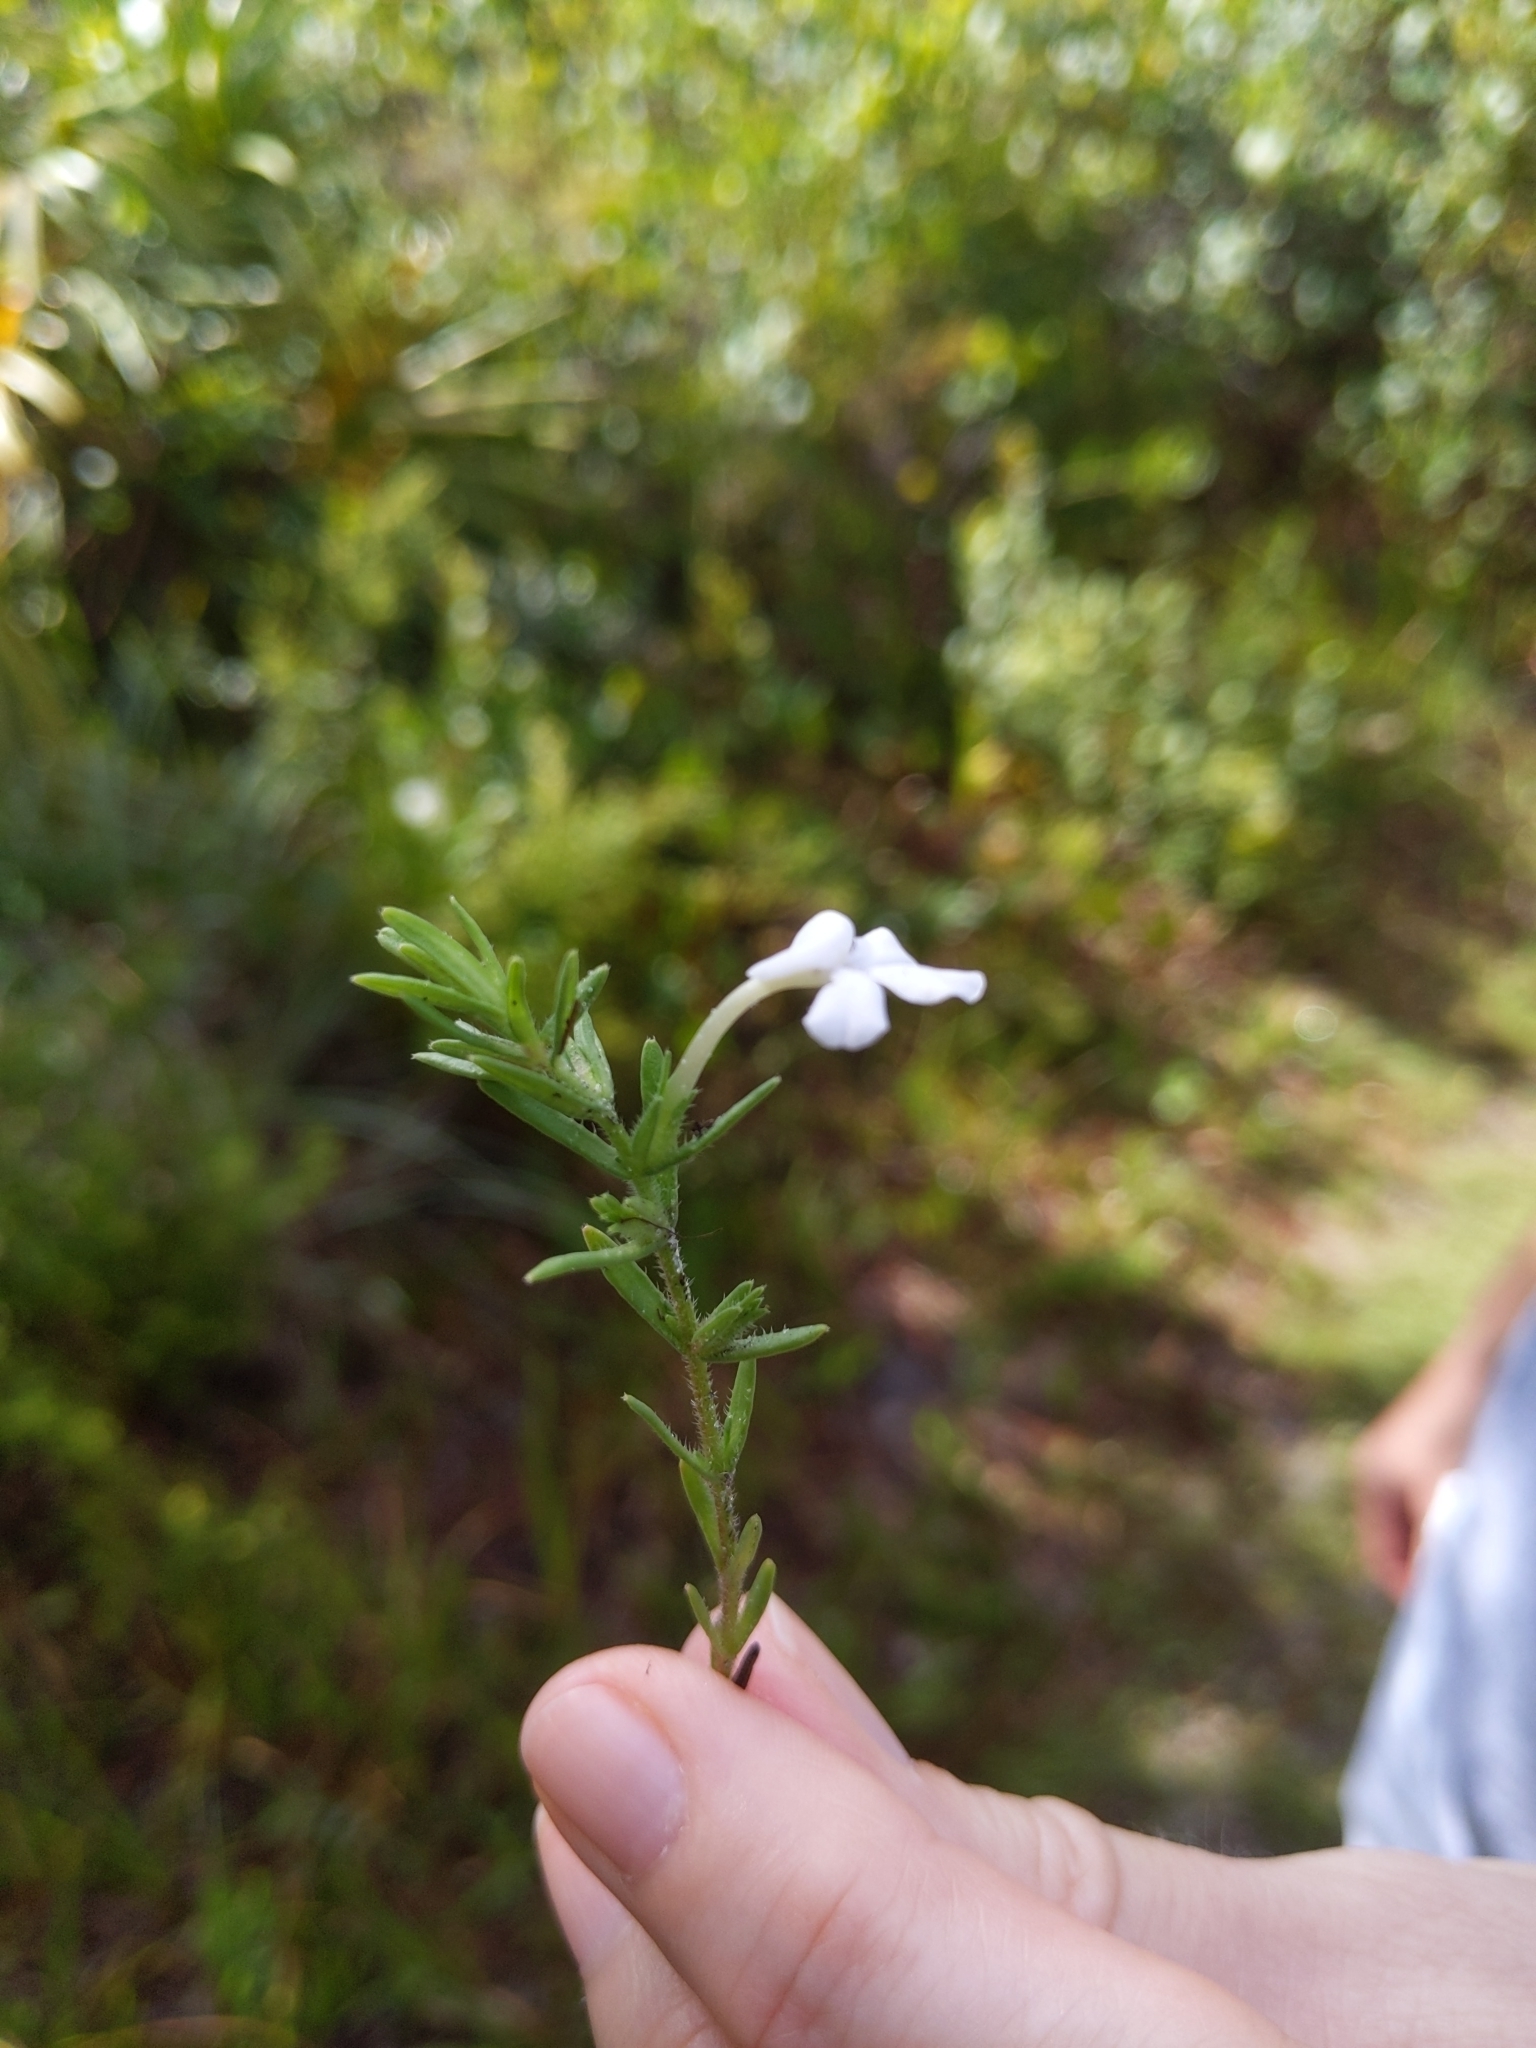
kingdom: Plantae
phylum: Tracheophyta
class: Magnoliopsida
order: Lamiales
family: Plantaginaceae
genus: Gratiola
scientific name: Gratiola hispida
